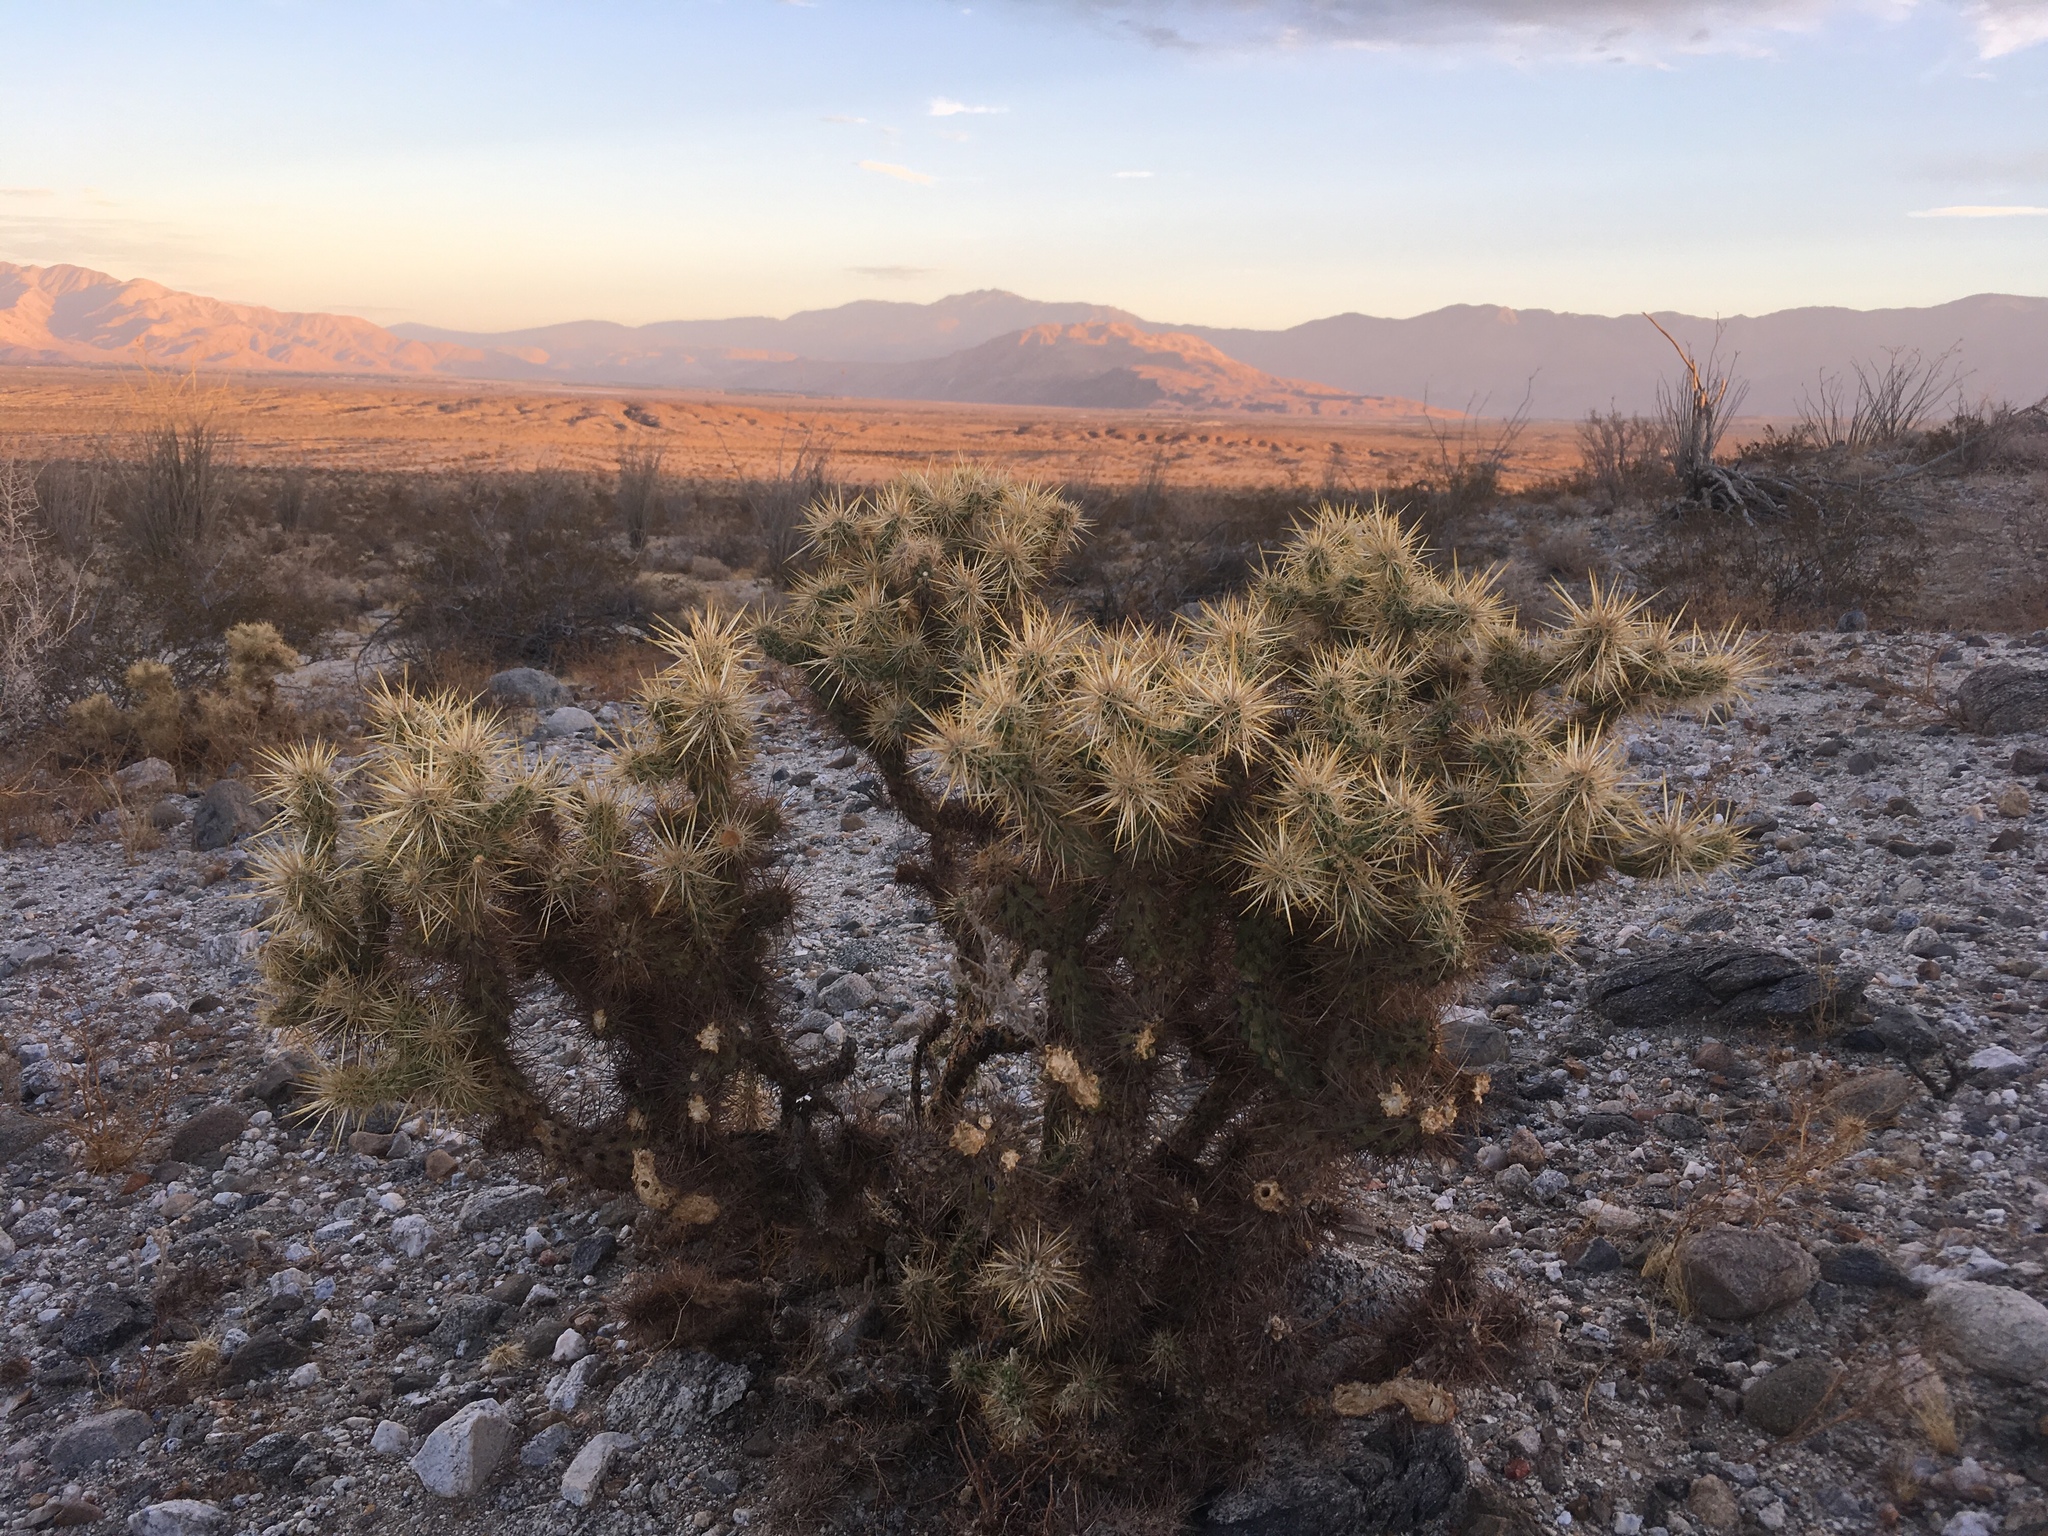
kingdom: Plantae
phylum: Tracheophyta
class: Magnoliopsida
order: Caryophyllales
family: Cactaceae
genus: Cylindropuntia
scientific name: Cylindropuntia echinocarpa
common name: Ground cholla
